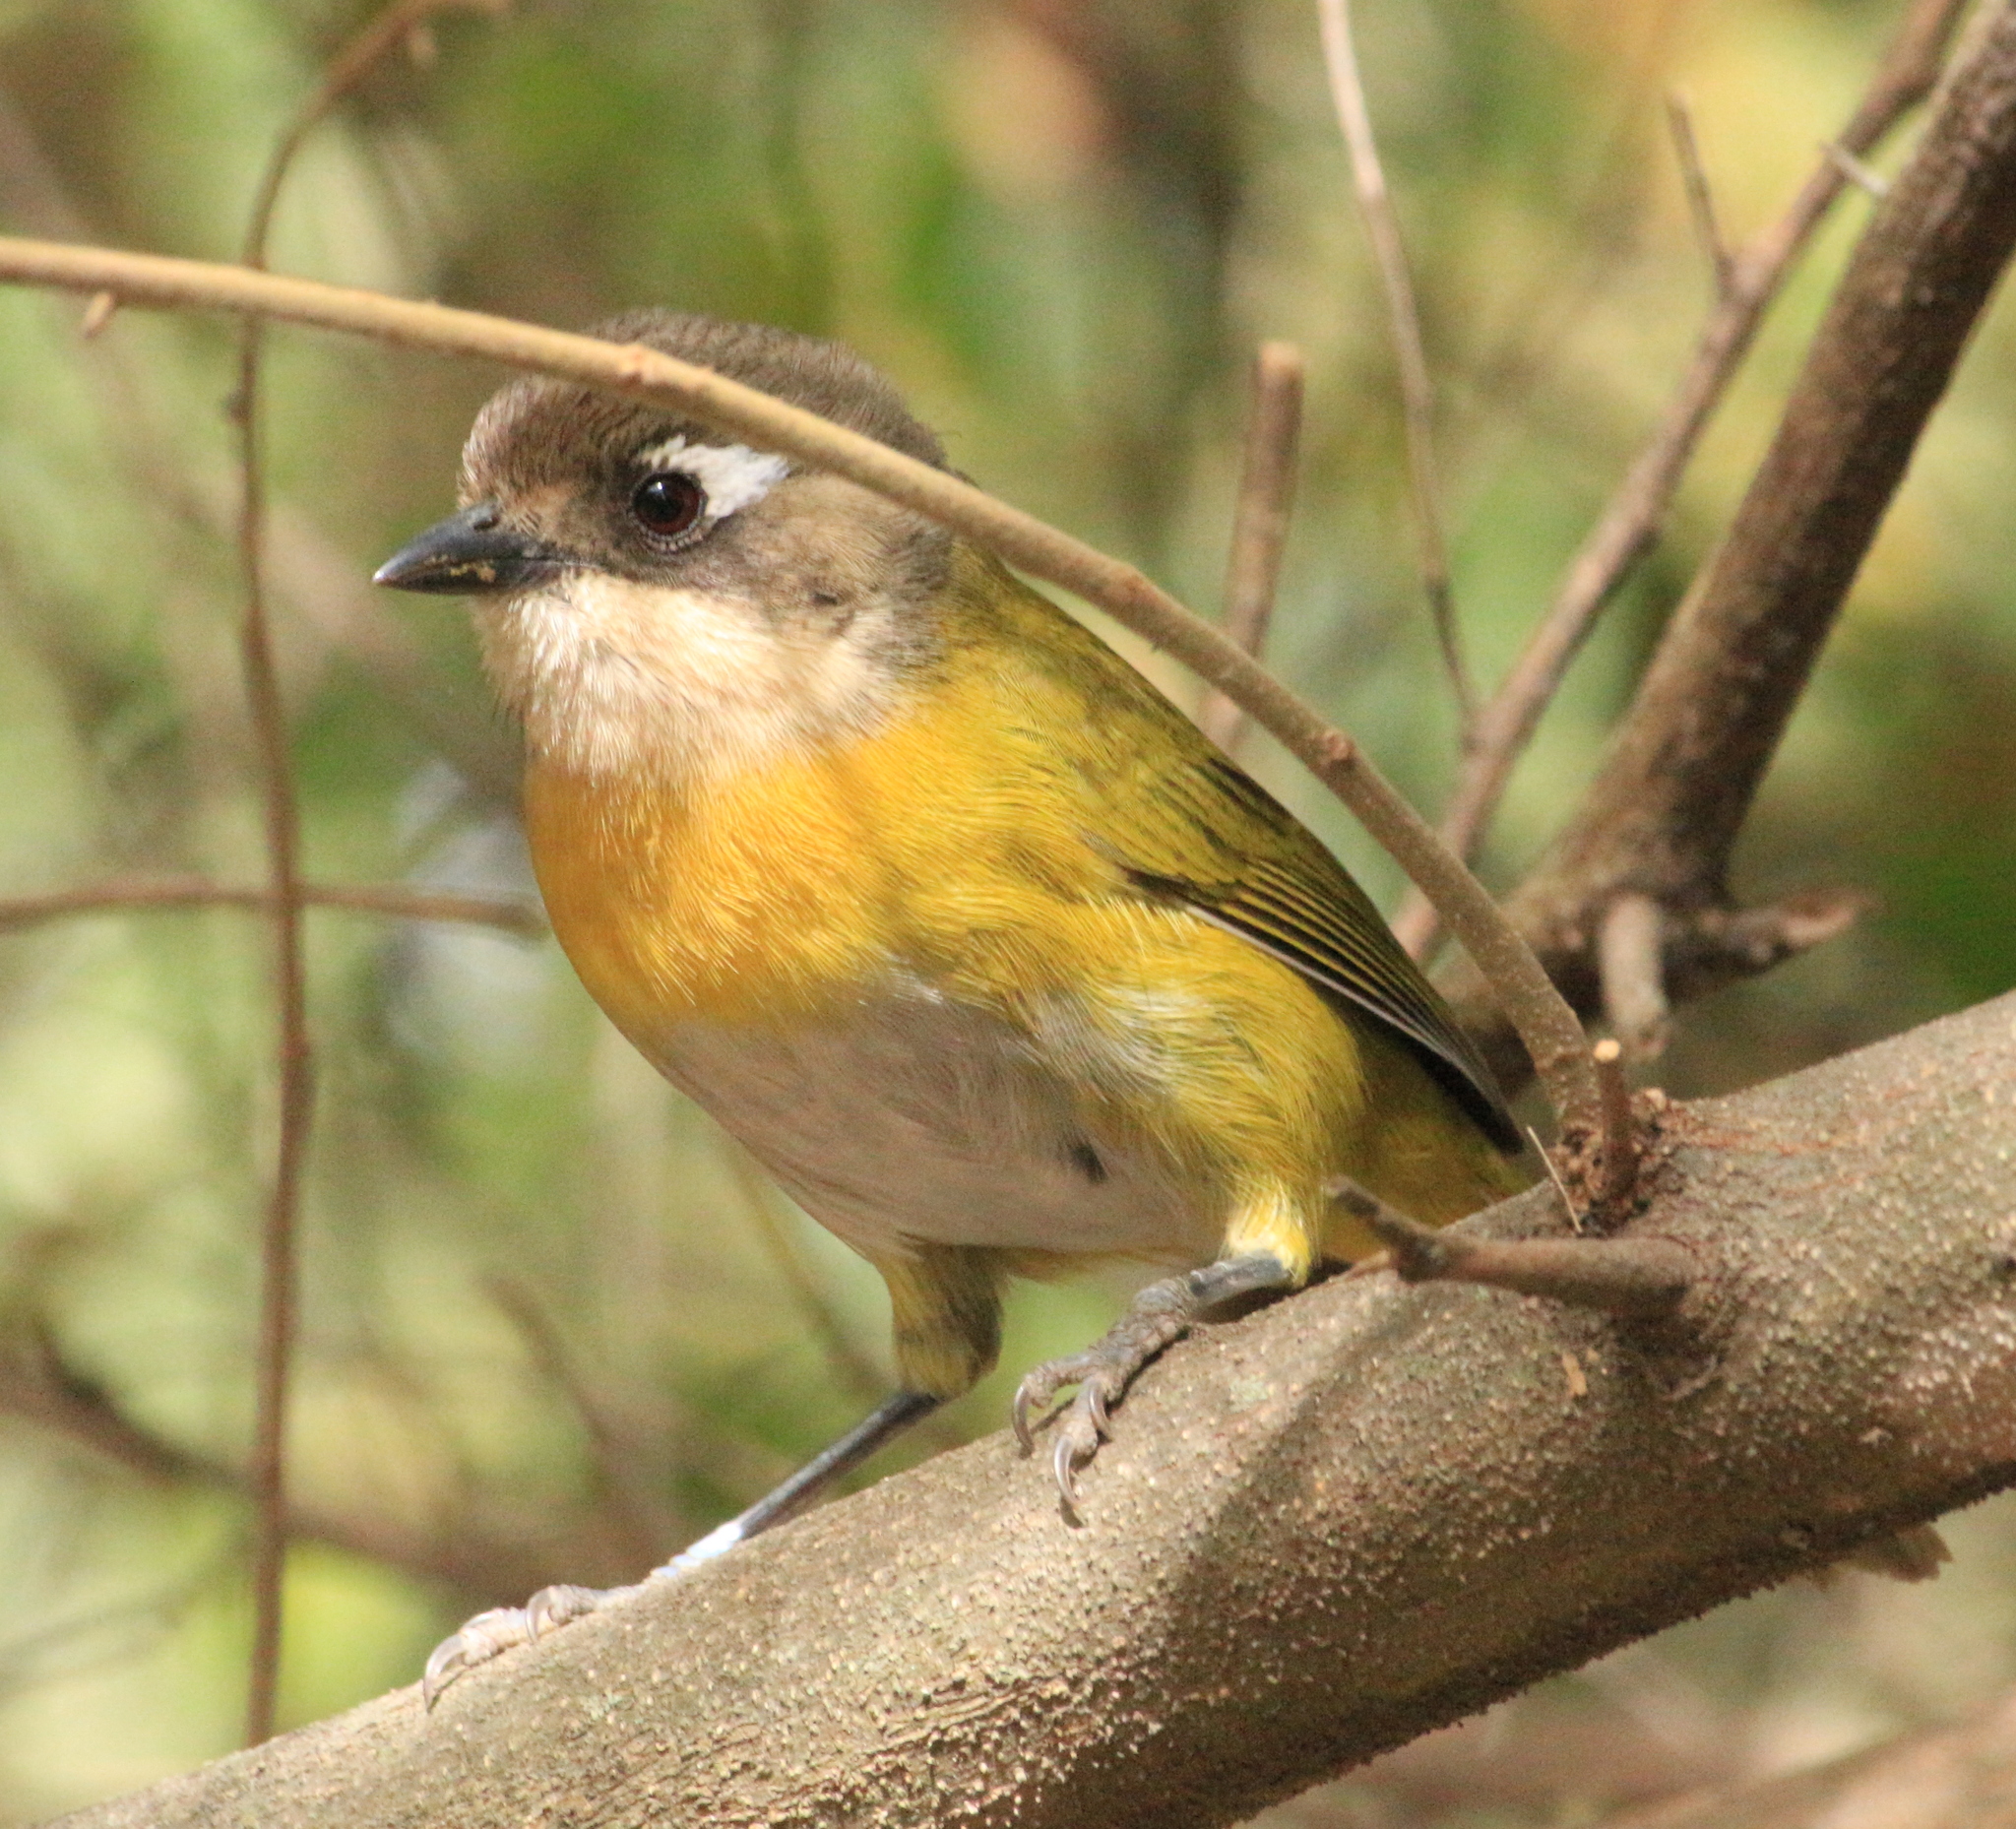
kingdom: Animalia
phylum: Chordata
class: Aves
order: Passeriformes
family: Passerellidae
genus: Chlorospingus
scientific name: Chlorospingus flavopectus
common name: Common chlorospingus
